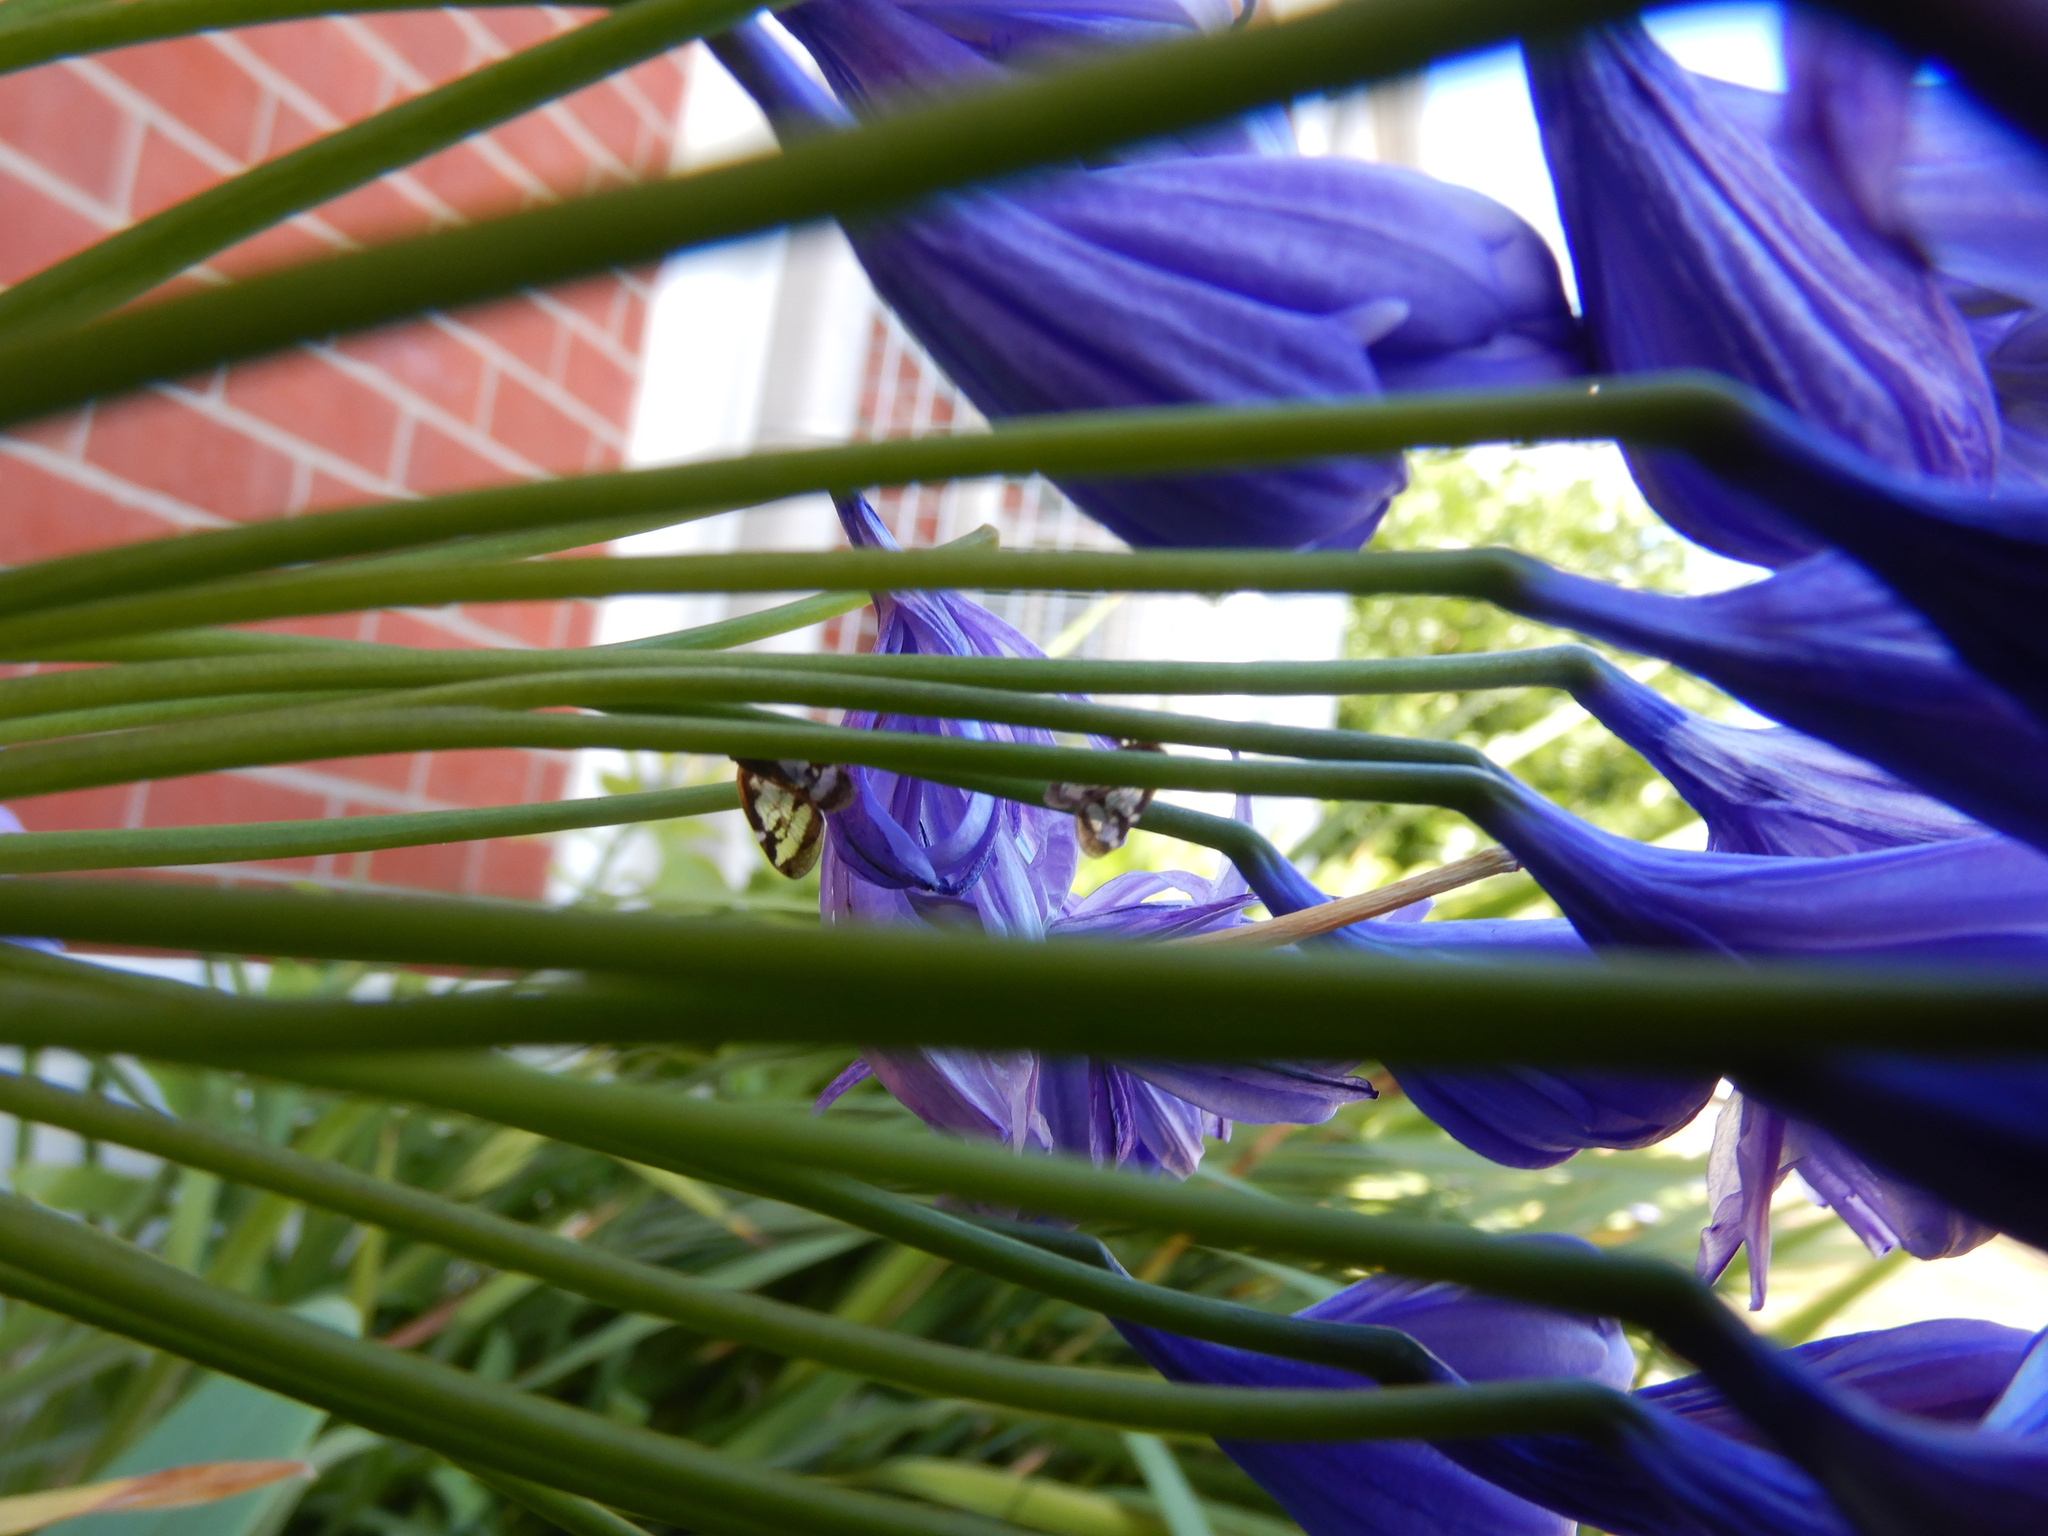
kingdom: Animalia
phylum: Arthropoda
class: Insecta
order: Hemiptera
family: Ricaniidae
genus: Scolypopa
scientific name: Scolypopa australis
